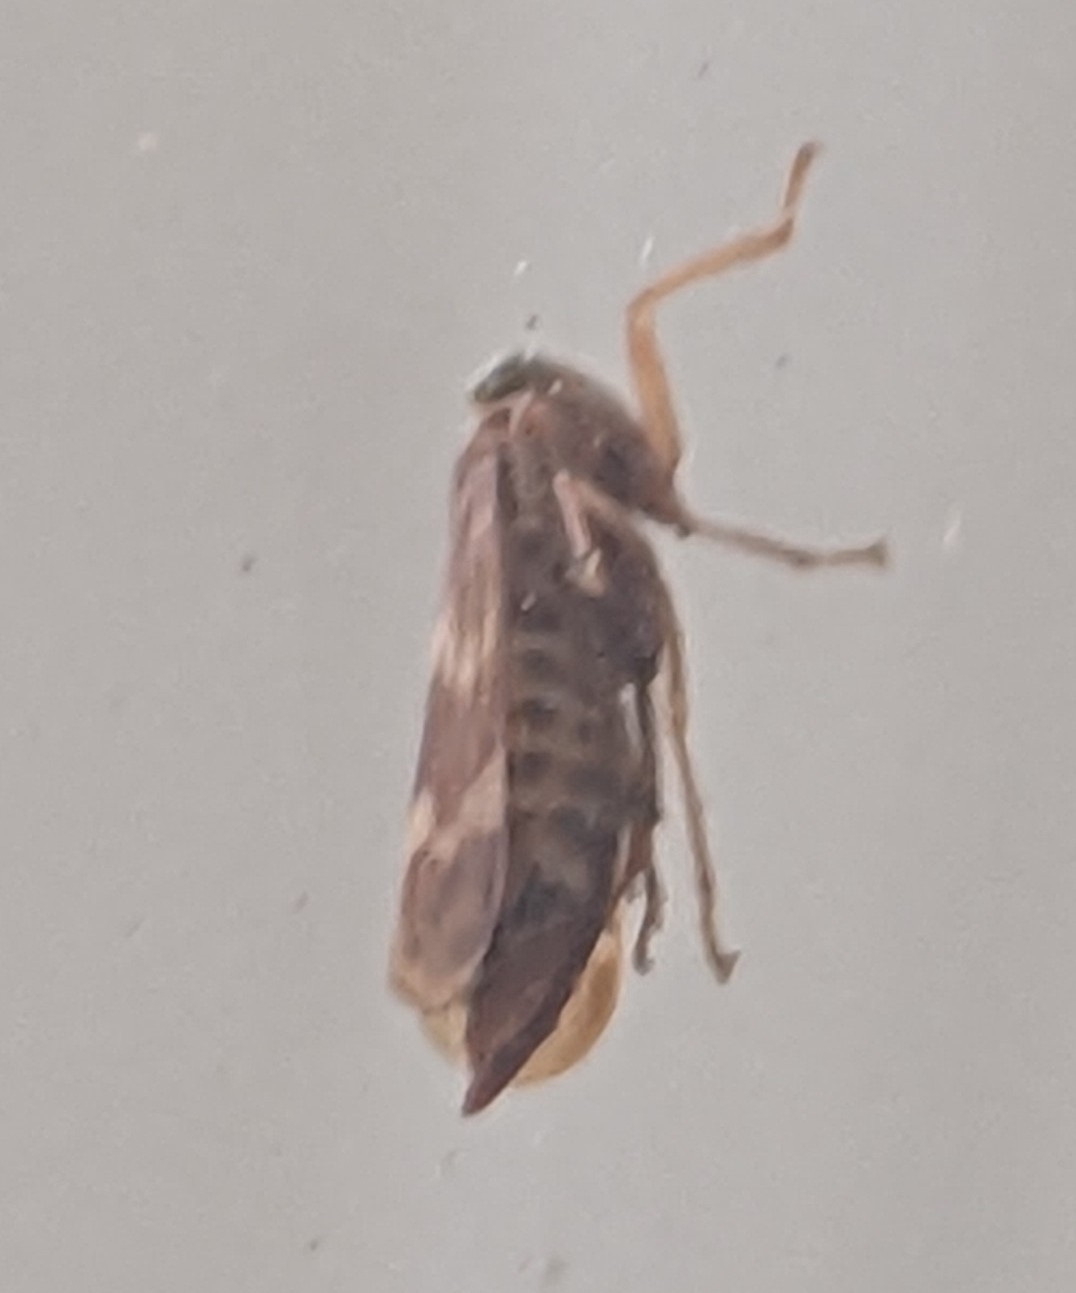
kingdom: Animalia
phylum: Arthropoda
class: Insecta
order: Hemiptera
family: Cicadellidae
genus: Jikradia
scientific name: Jikradia olitoria
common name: Coppery leafhopper
